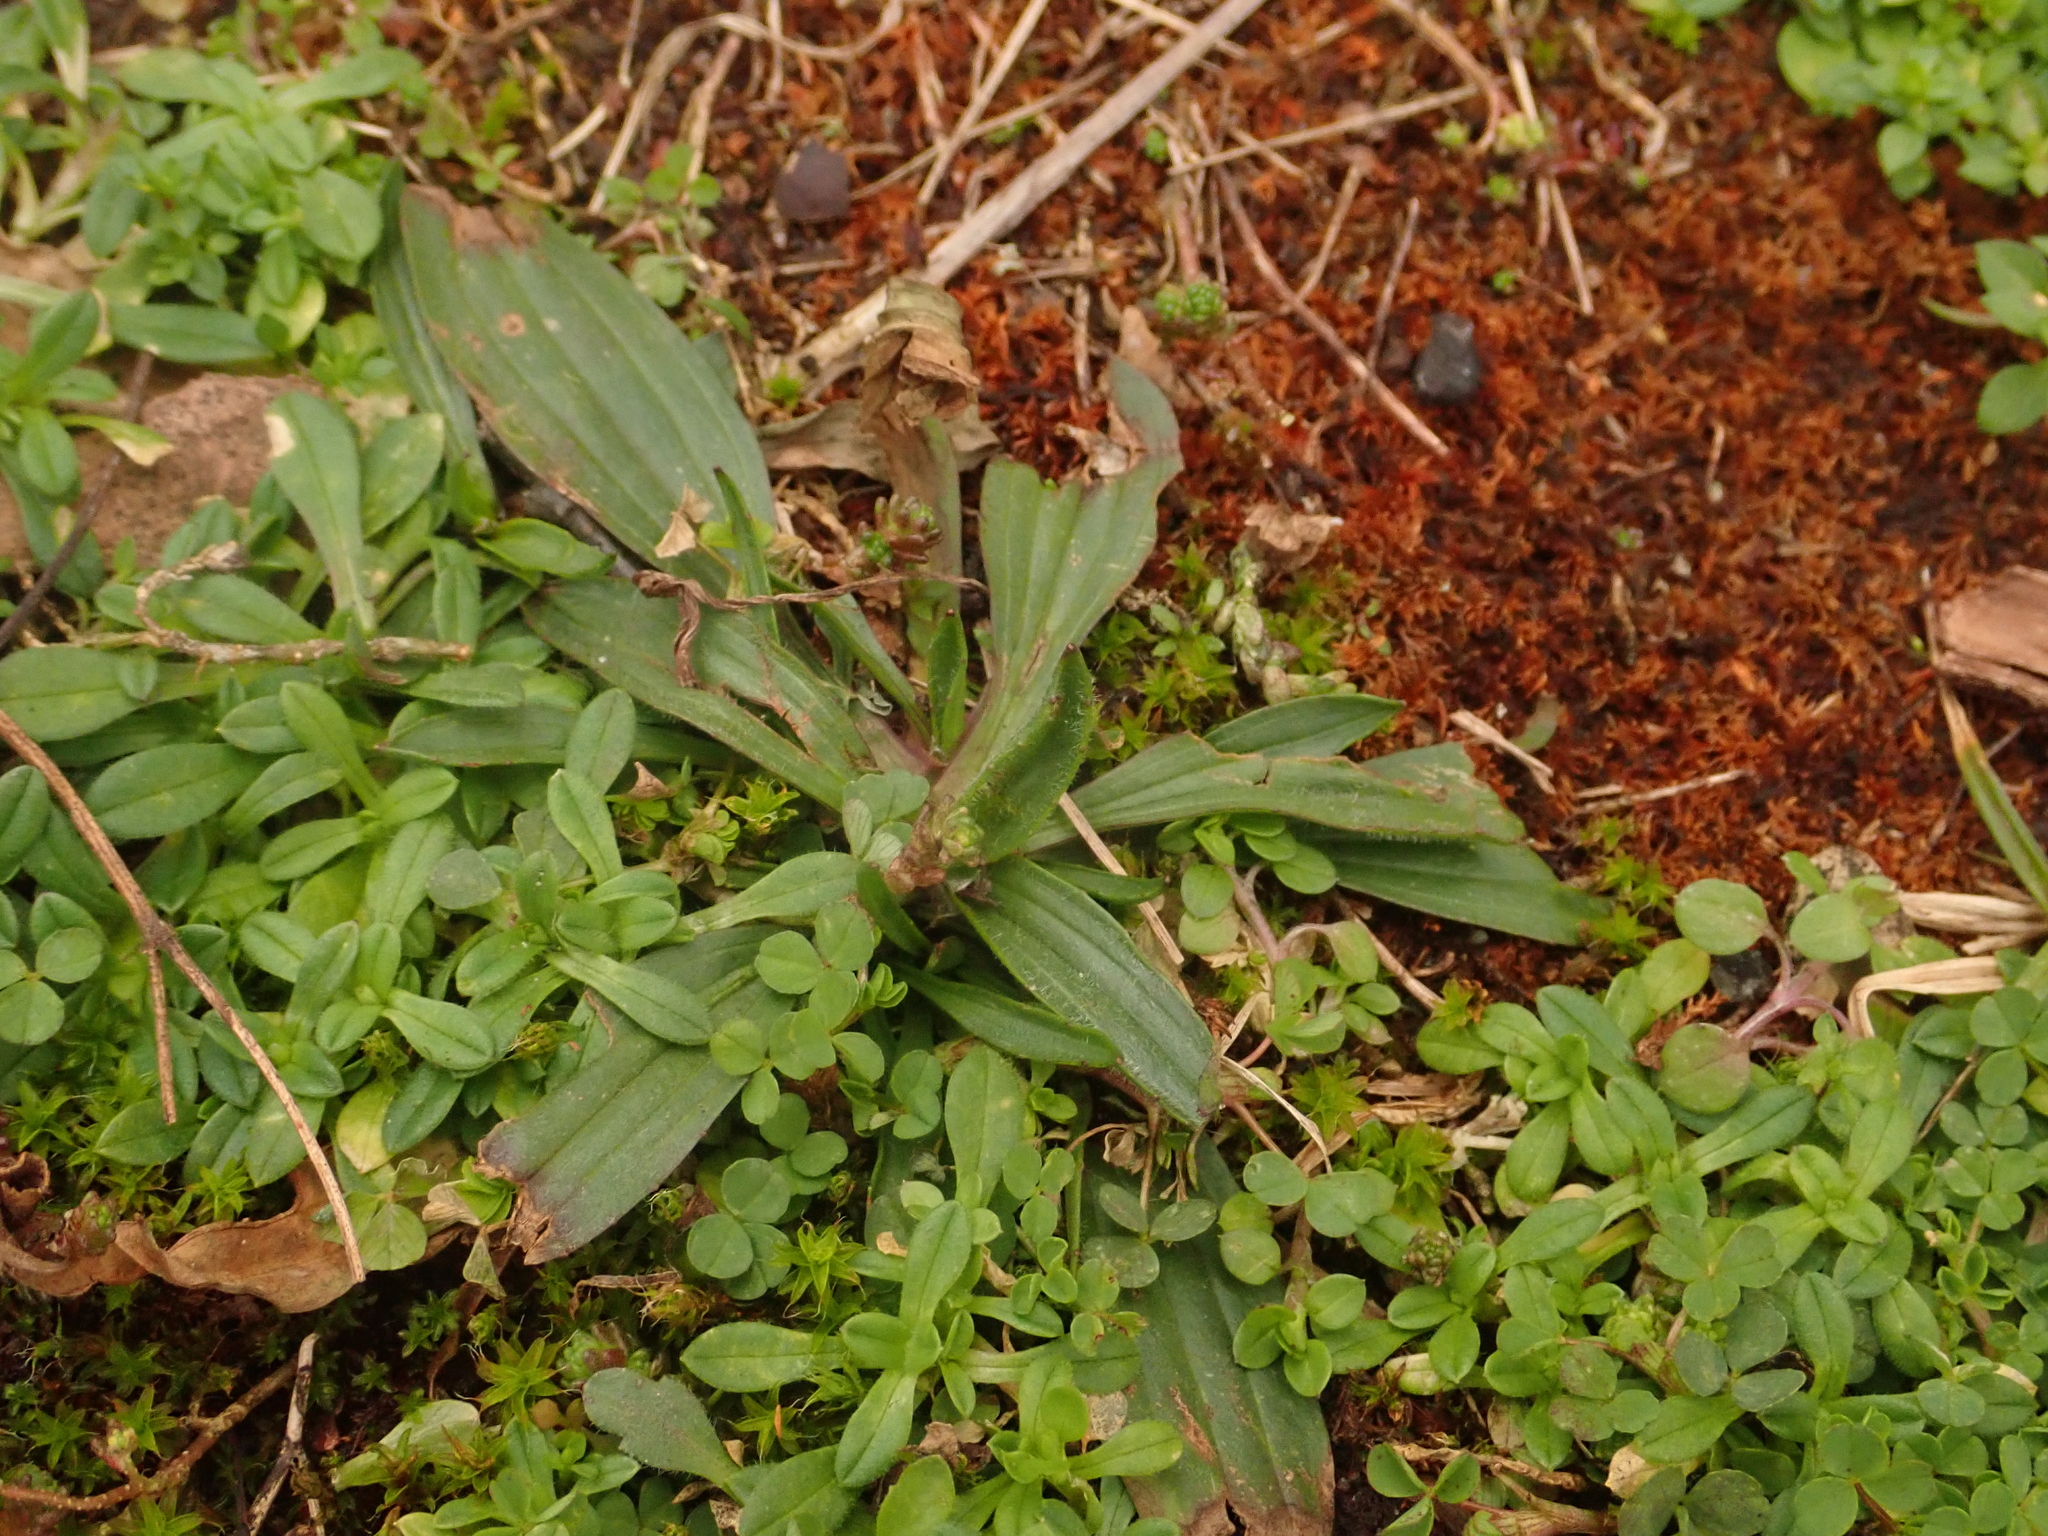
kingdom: Plantae
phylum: Tracheophyta
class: Magnoliopsida
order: Lamiales
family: Plantaginaceae
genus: Plantago
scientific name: Plantago lanceolata
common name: Ribwort plantain
